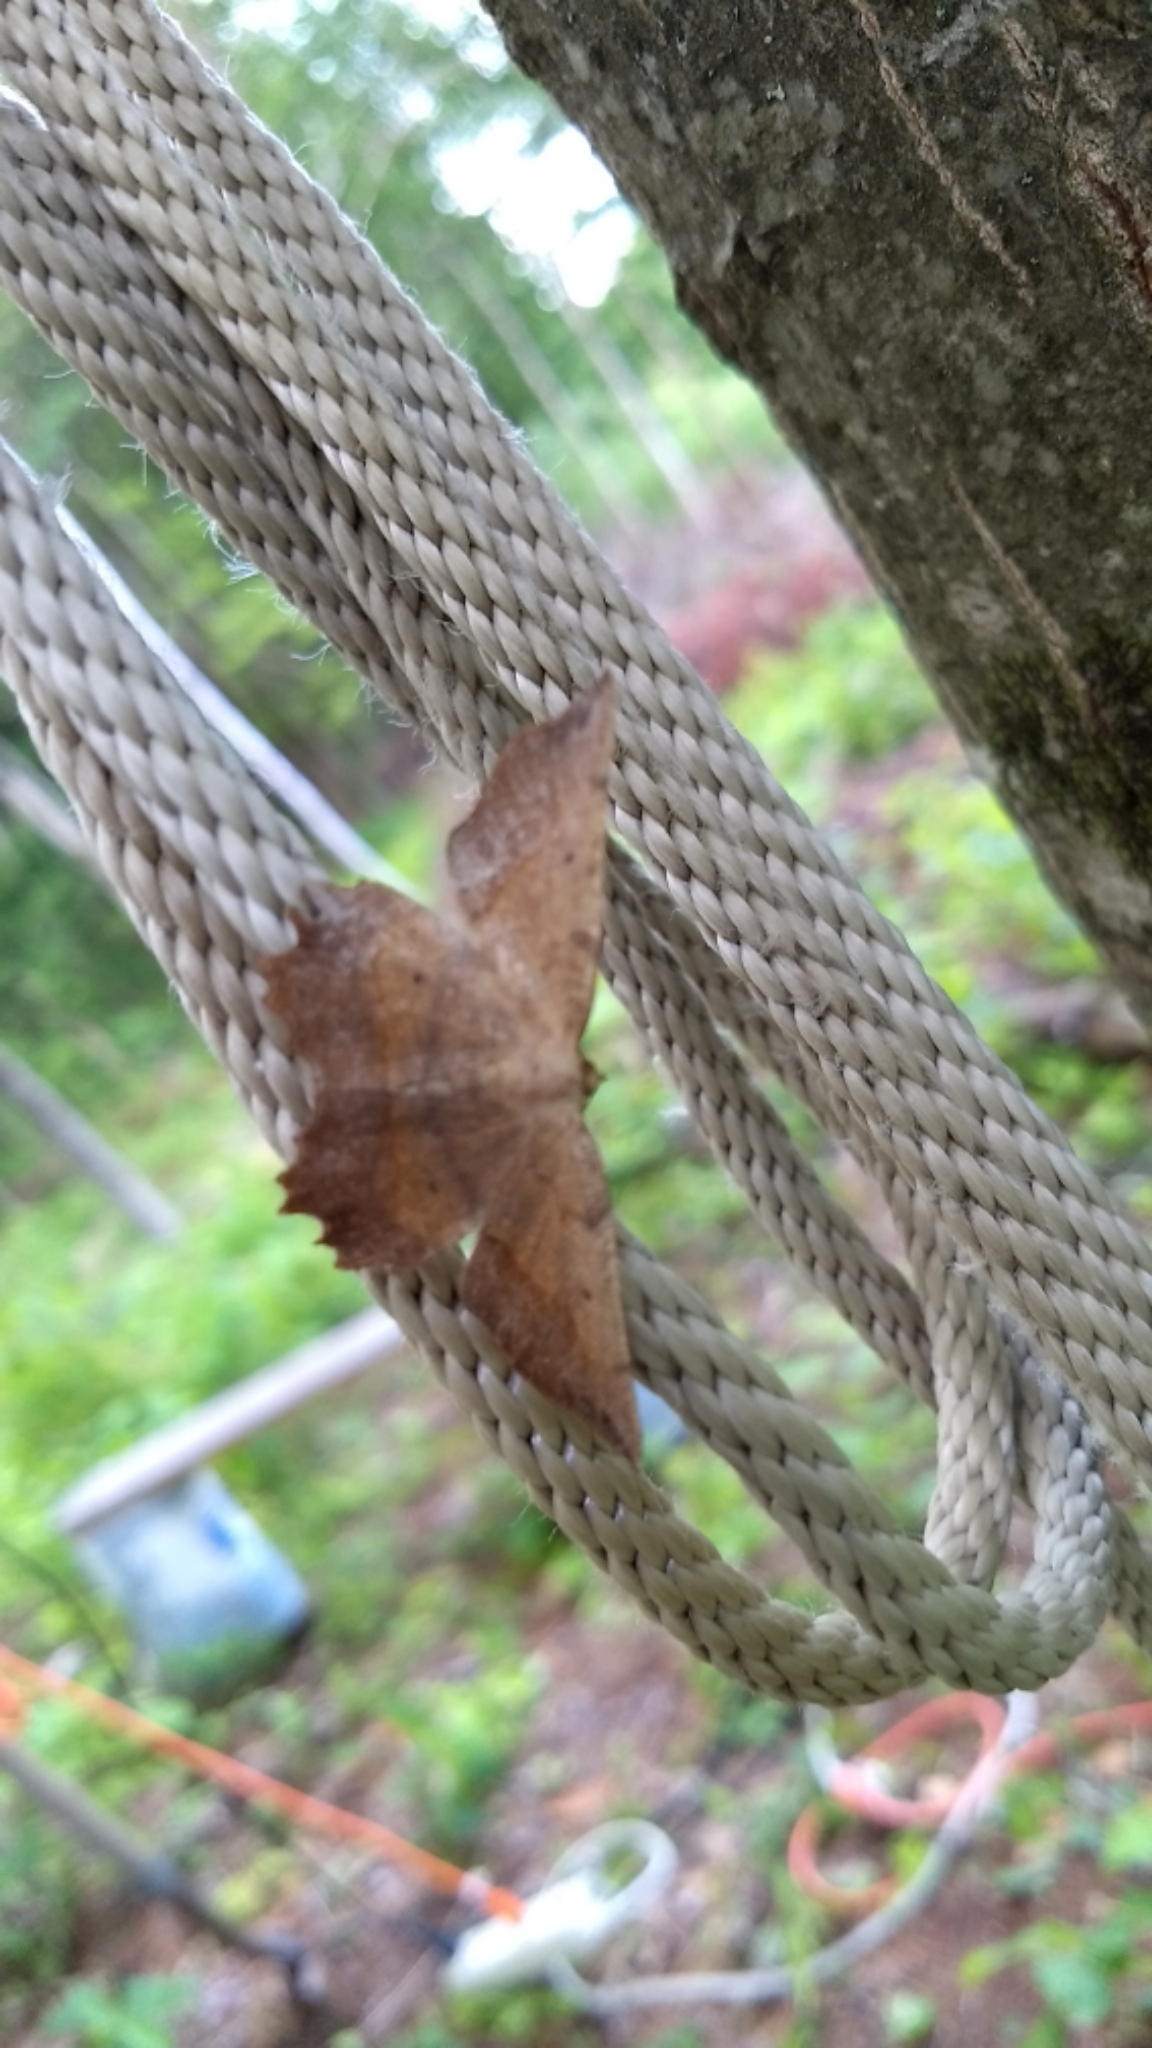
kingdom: Animalia
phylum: Arthropoda
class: Insecta
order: Lepidoptera
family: Geometridae
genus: Euchlaena
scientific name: Euchlaena muzaria
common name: Muzaria euchlaena
